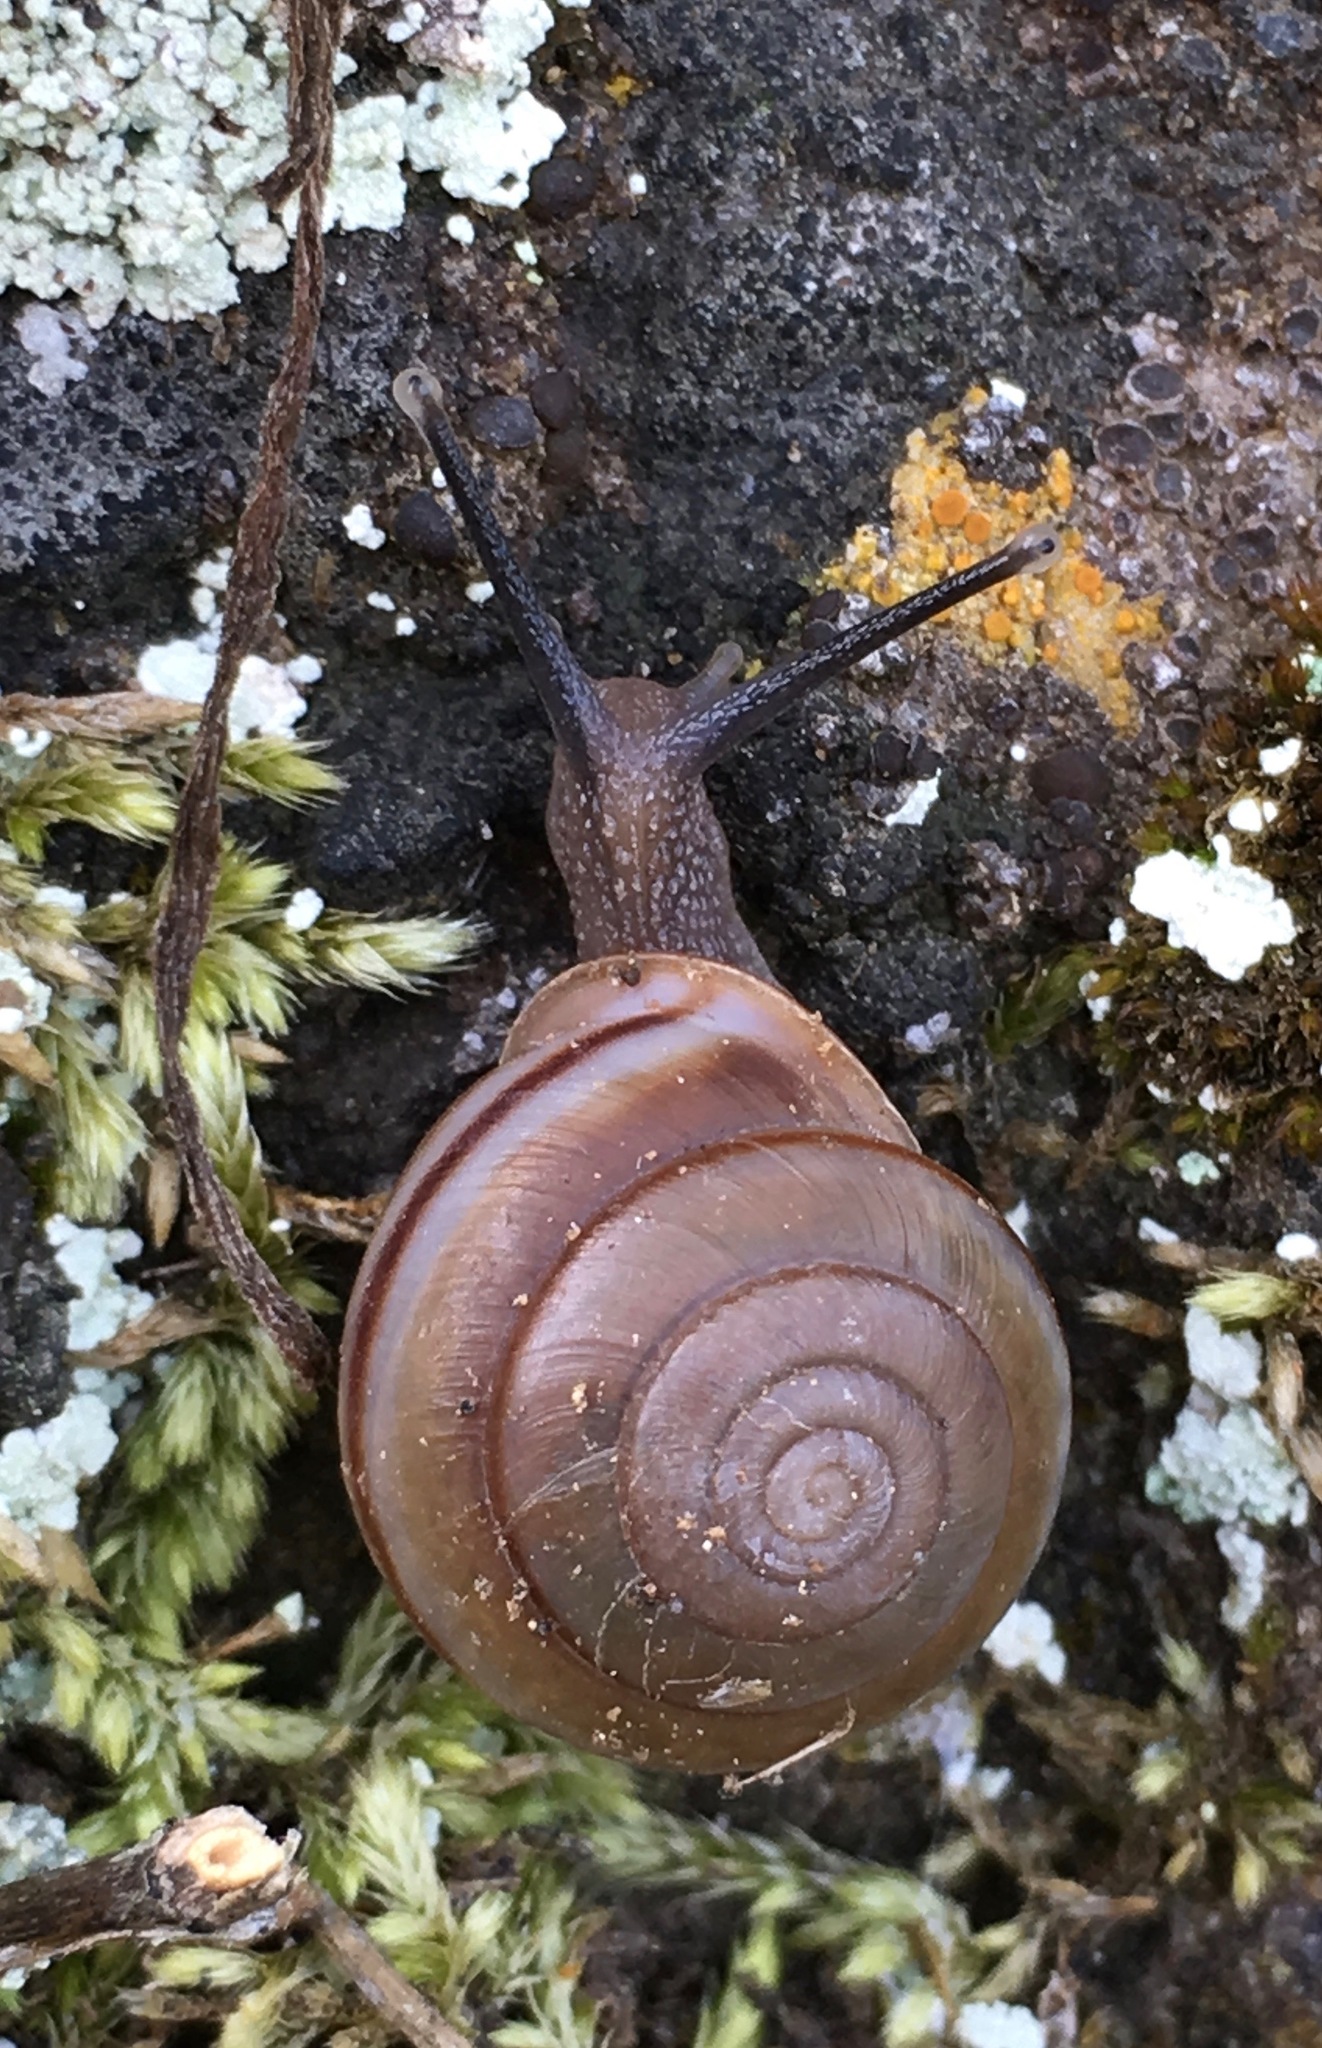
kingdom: Animalia
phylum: Mollusca
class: Gastropoda
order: Stylommatophora
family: Xanthonychidae
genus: Micrarionta
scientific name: Micrarionta facta
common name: Concentrated snail
